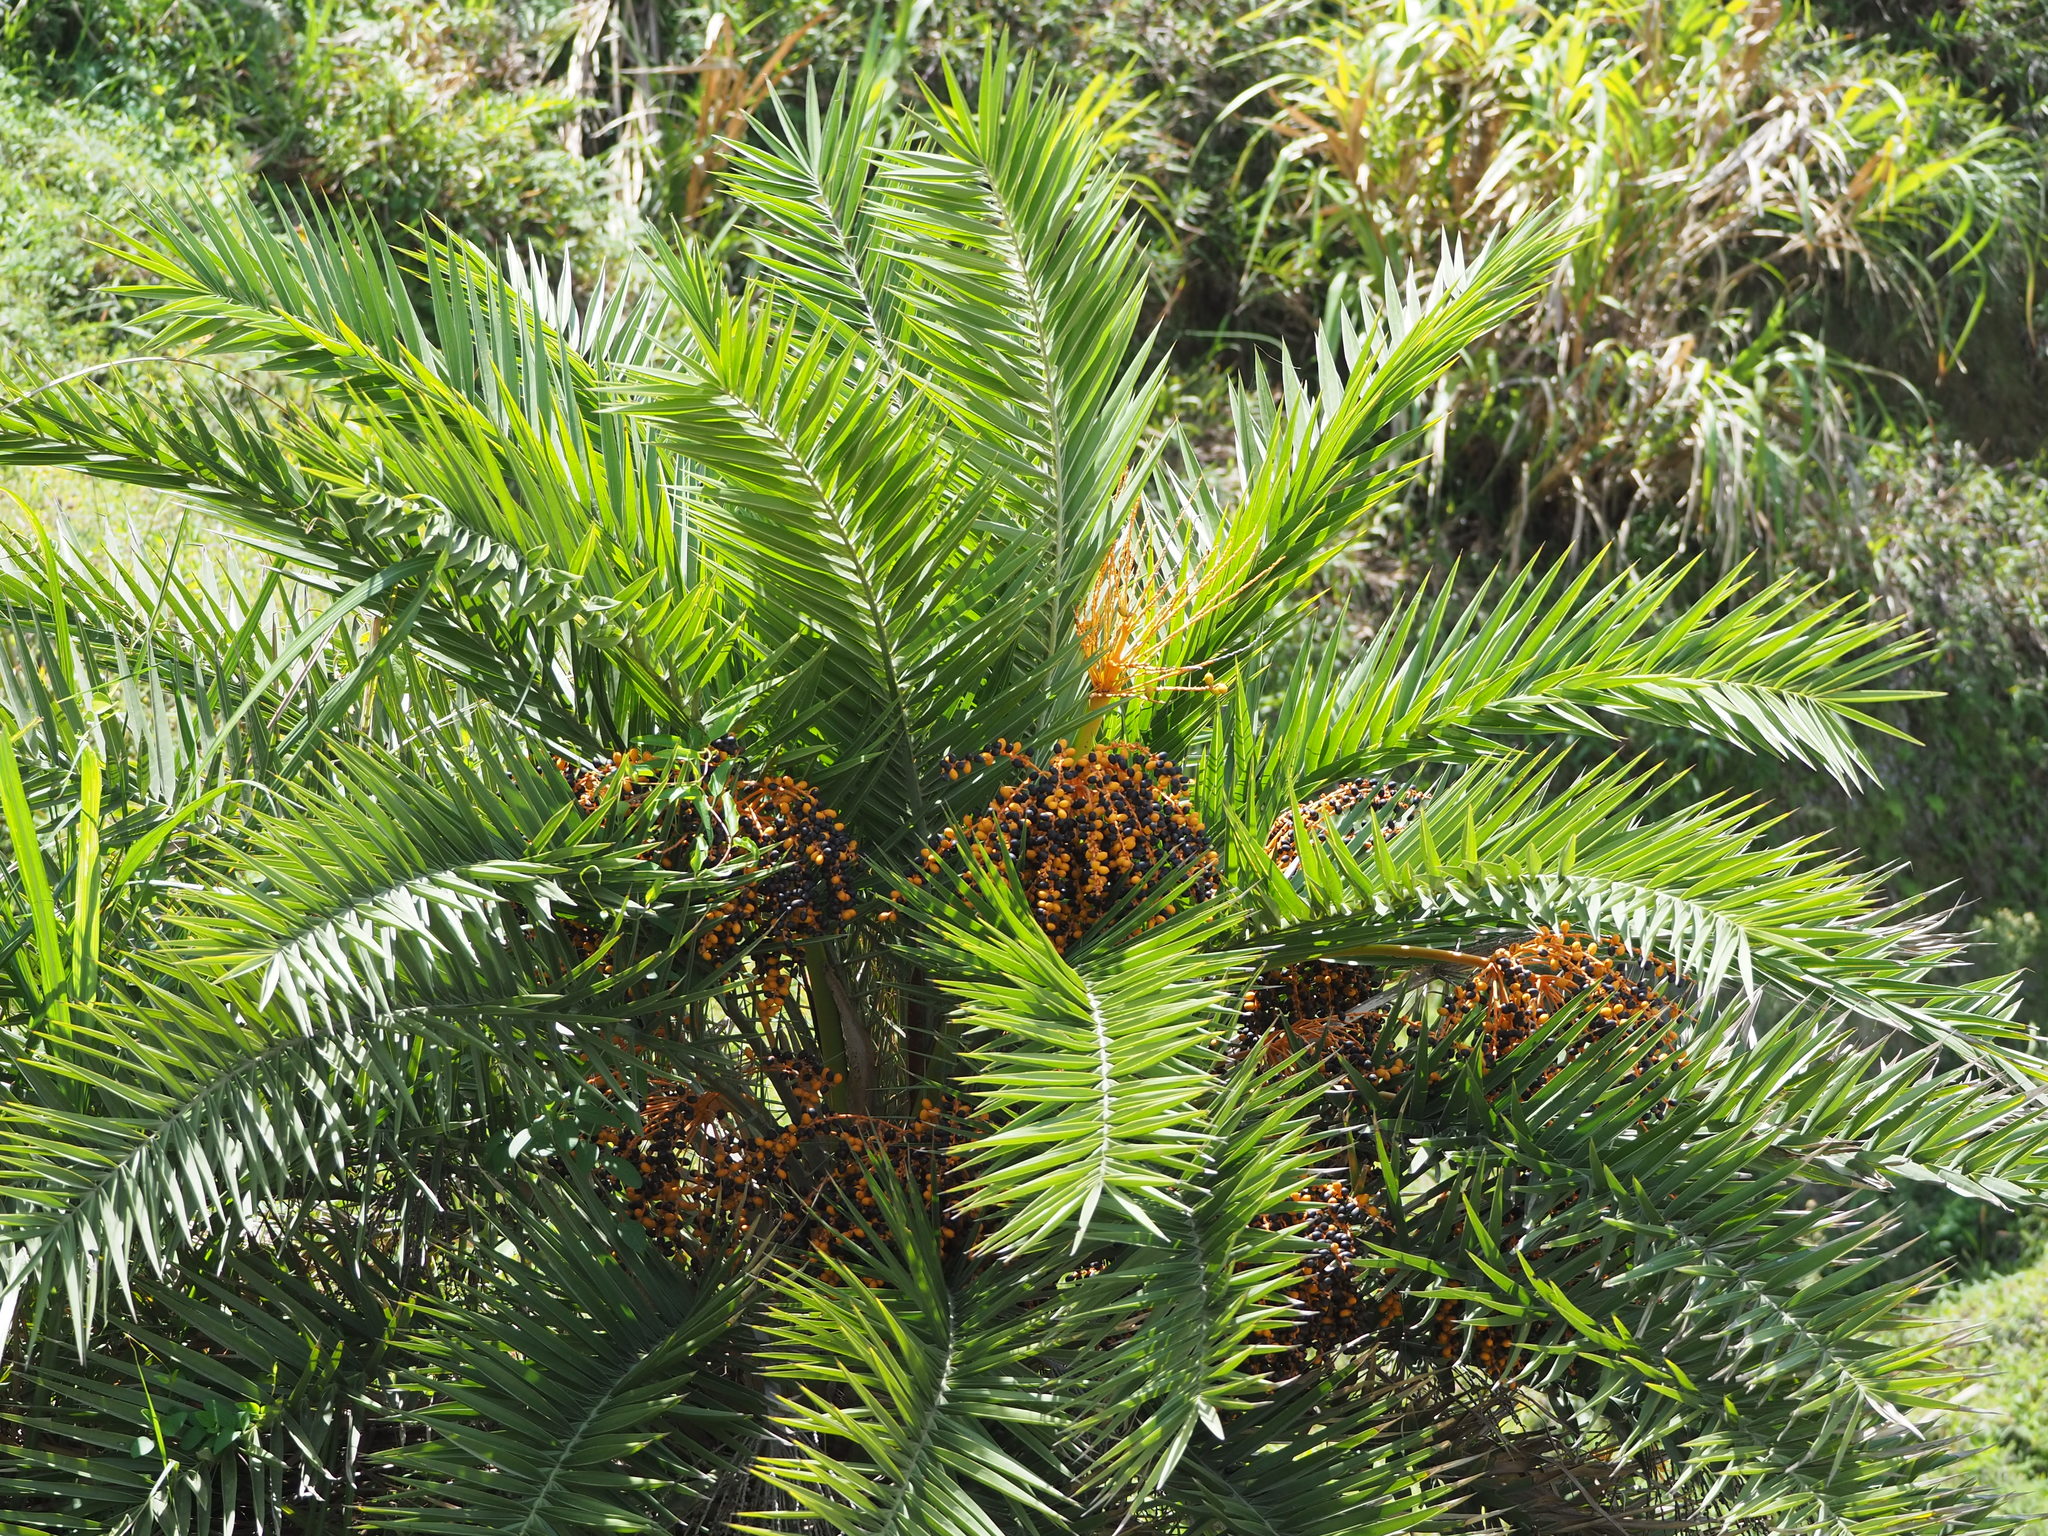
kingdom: Plantae
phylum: Tracheophyta
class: Liliopsida
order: Arecales
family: Arecaceae
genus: Phoenix
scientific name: Phoenix loureiroi
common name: Loureiro's palm
